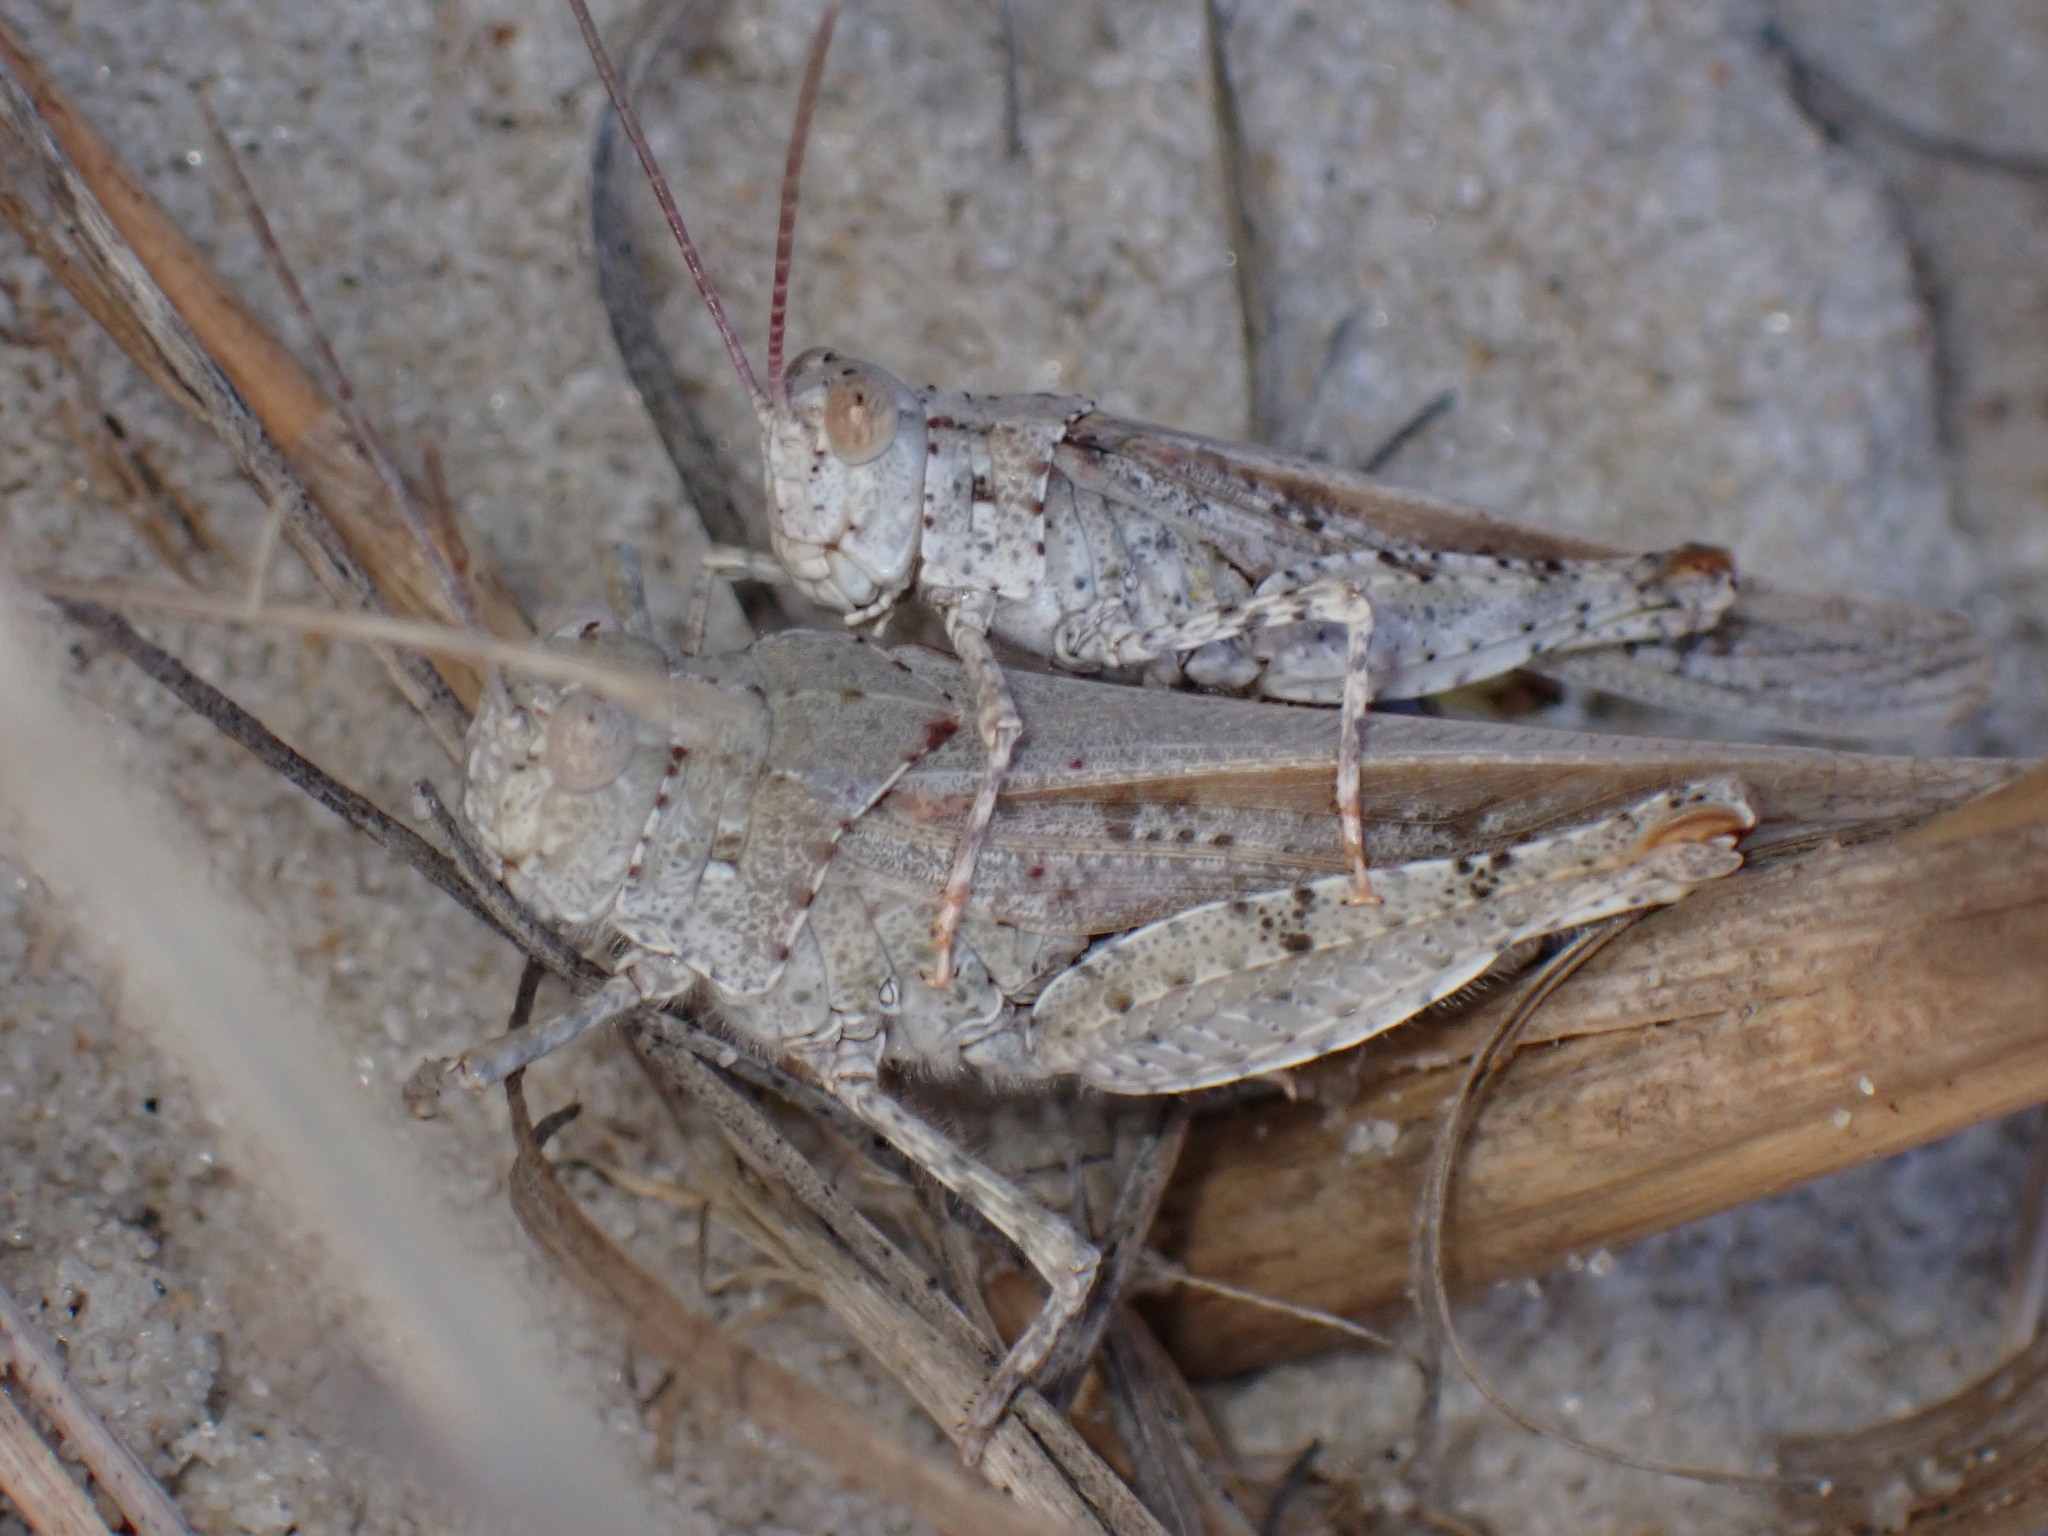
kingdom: Animalia
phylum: Arthropoda
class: Insecta
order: Orthoptera
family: Acrididae
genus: Trimerotropis
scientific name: Trimerotropis maritima
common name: Seaside locust
